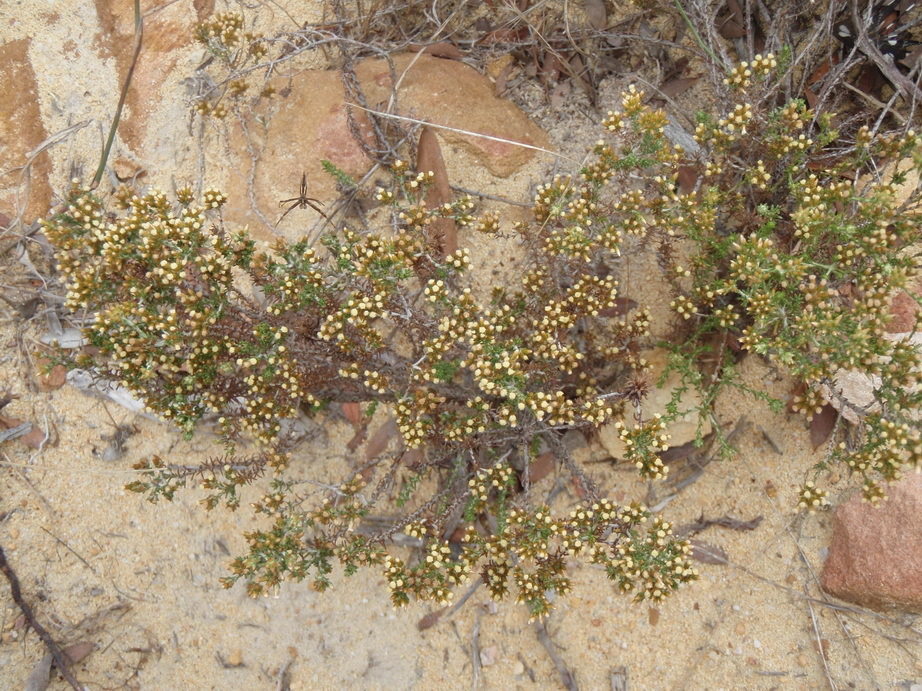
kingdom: Plantae
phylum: Tracheophyta
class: Magnoliopsida
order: Asterales
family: Asteraceae
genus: Helichrysum
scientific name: Helichrysum asperum
